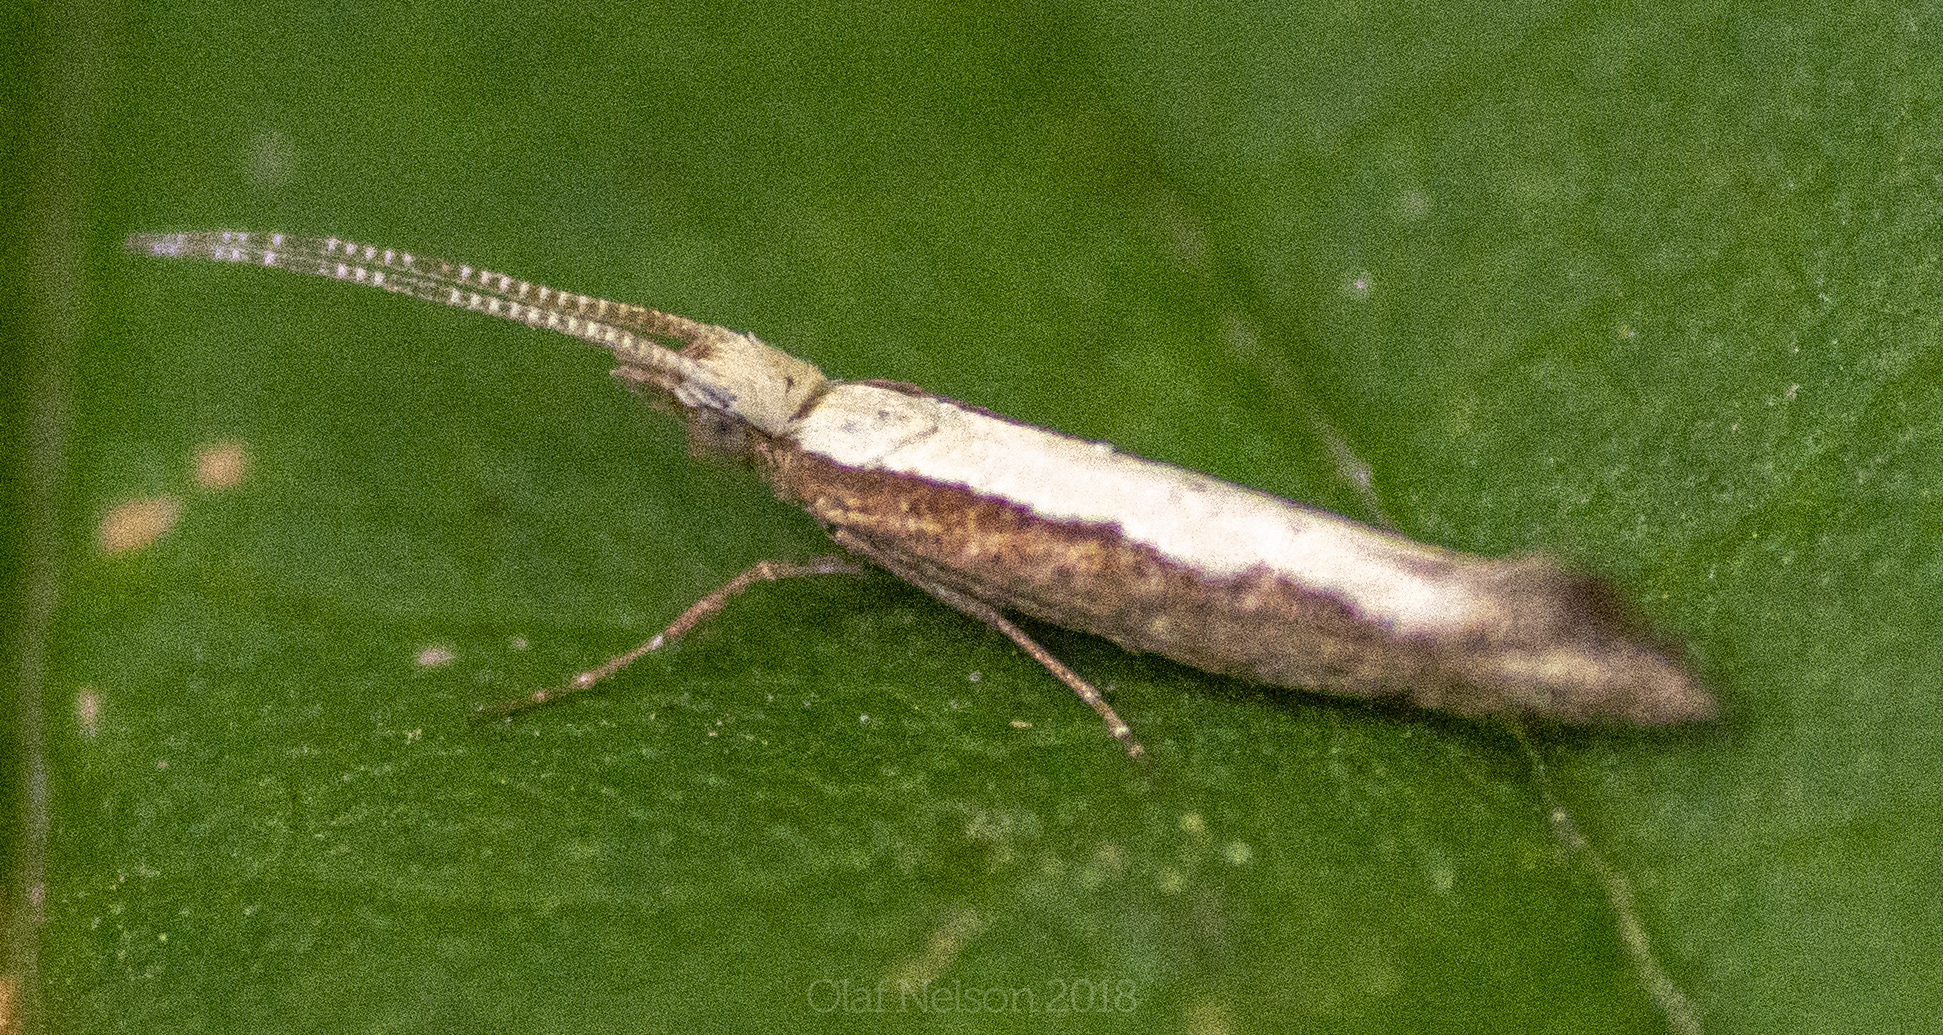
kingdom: Animalia
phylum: Arthropoda
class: Insecta
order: Lepidoptera
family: Plutellidae
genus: Plutella
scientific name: Plutella xylostella
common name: Diamond-back moth
